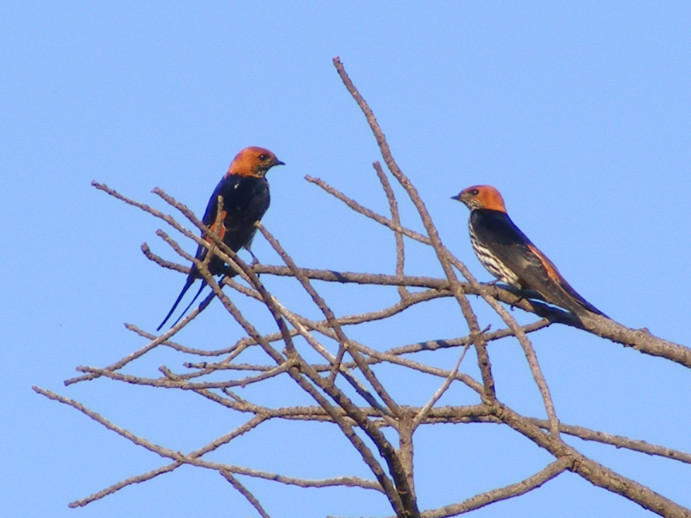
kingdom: Animalia
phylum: Chordata
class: Aves
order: Passeriformes
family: Hirundinidae
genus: Cecropis
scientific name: Cecropis abyssinica
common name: Lesser striped-swallow
